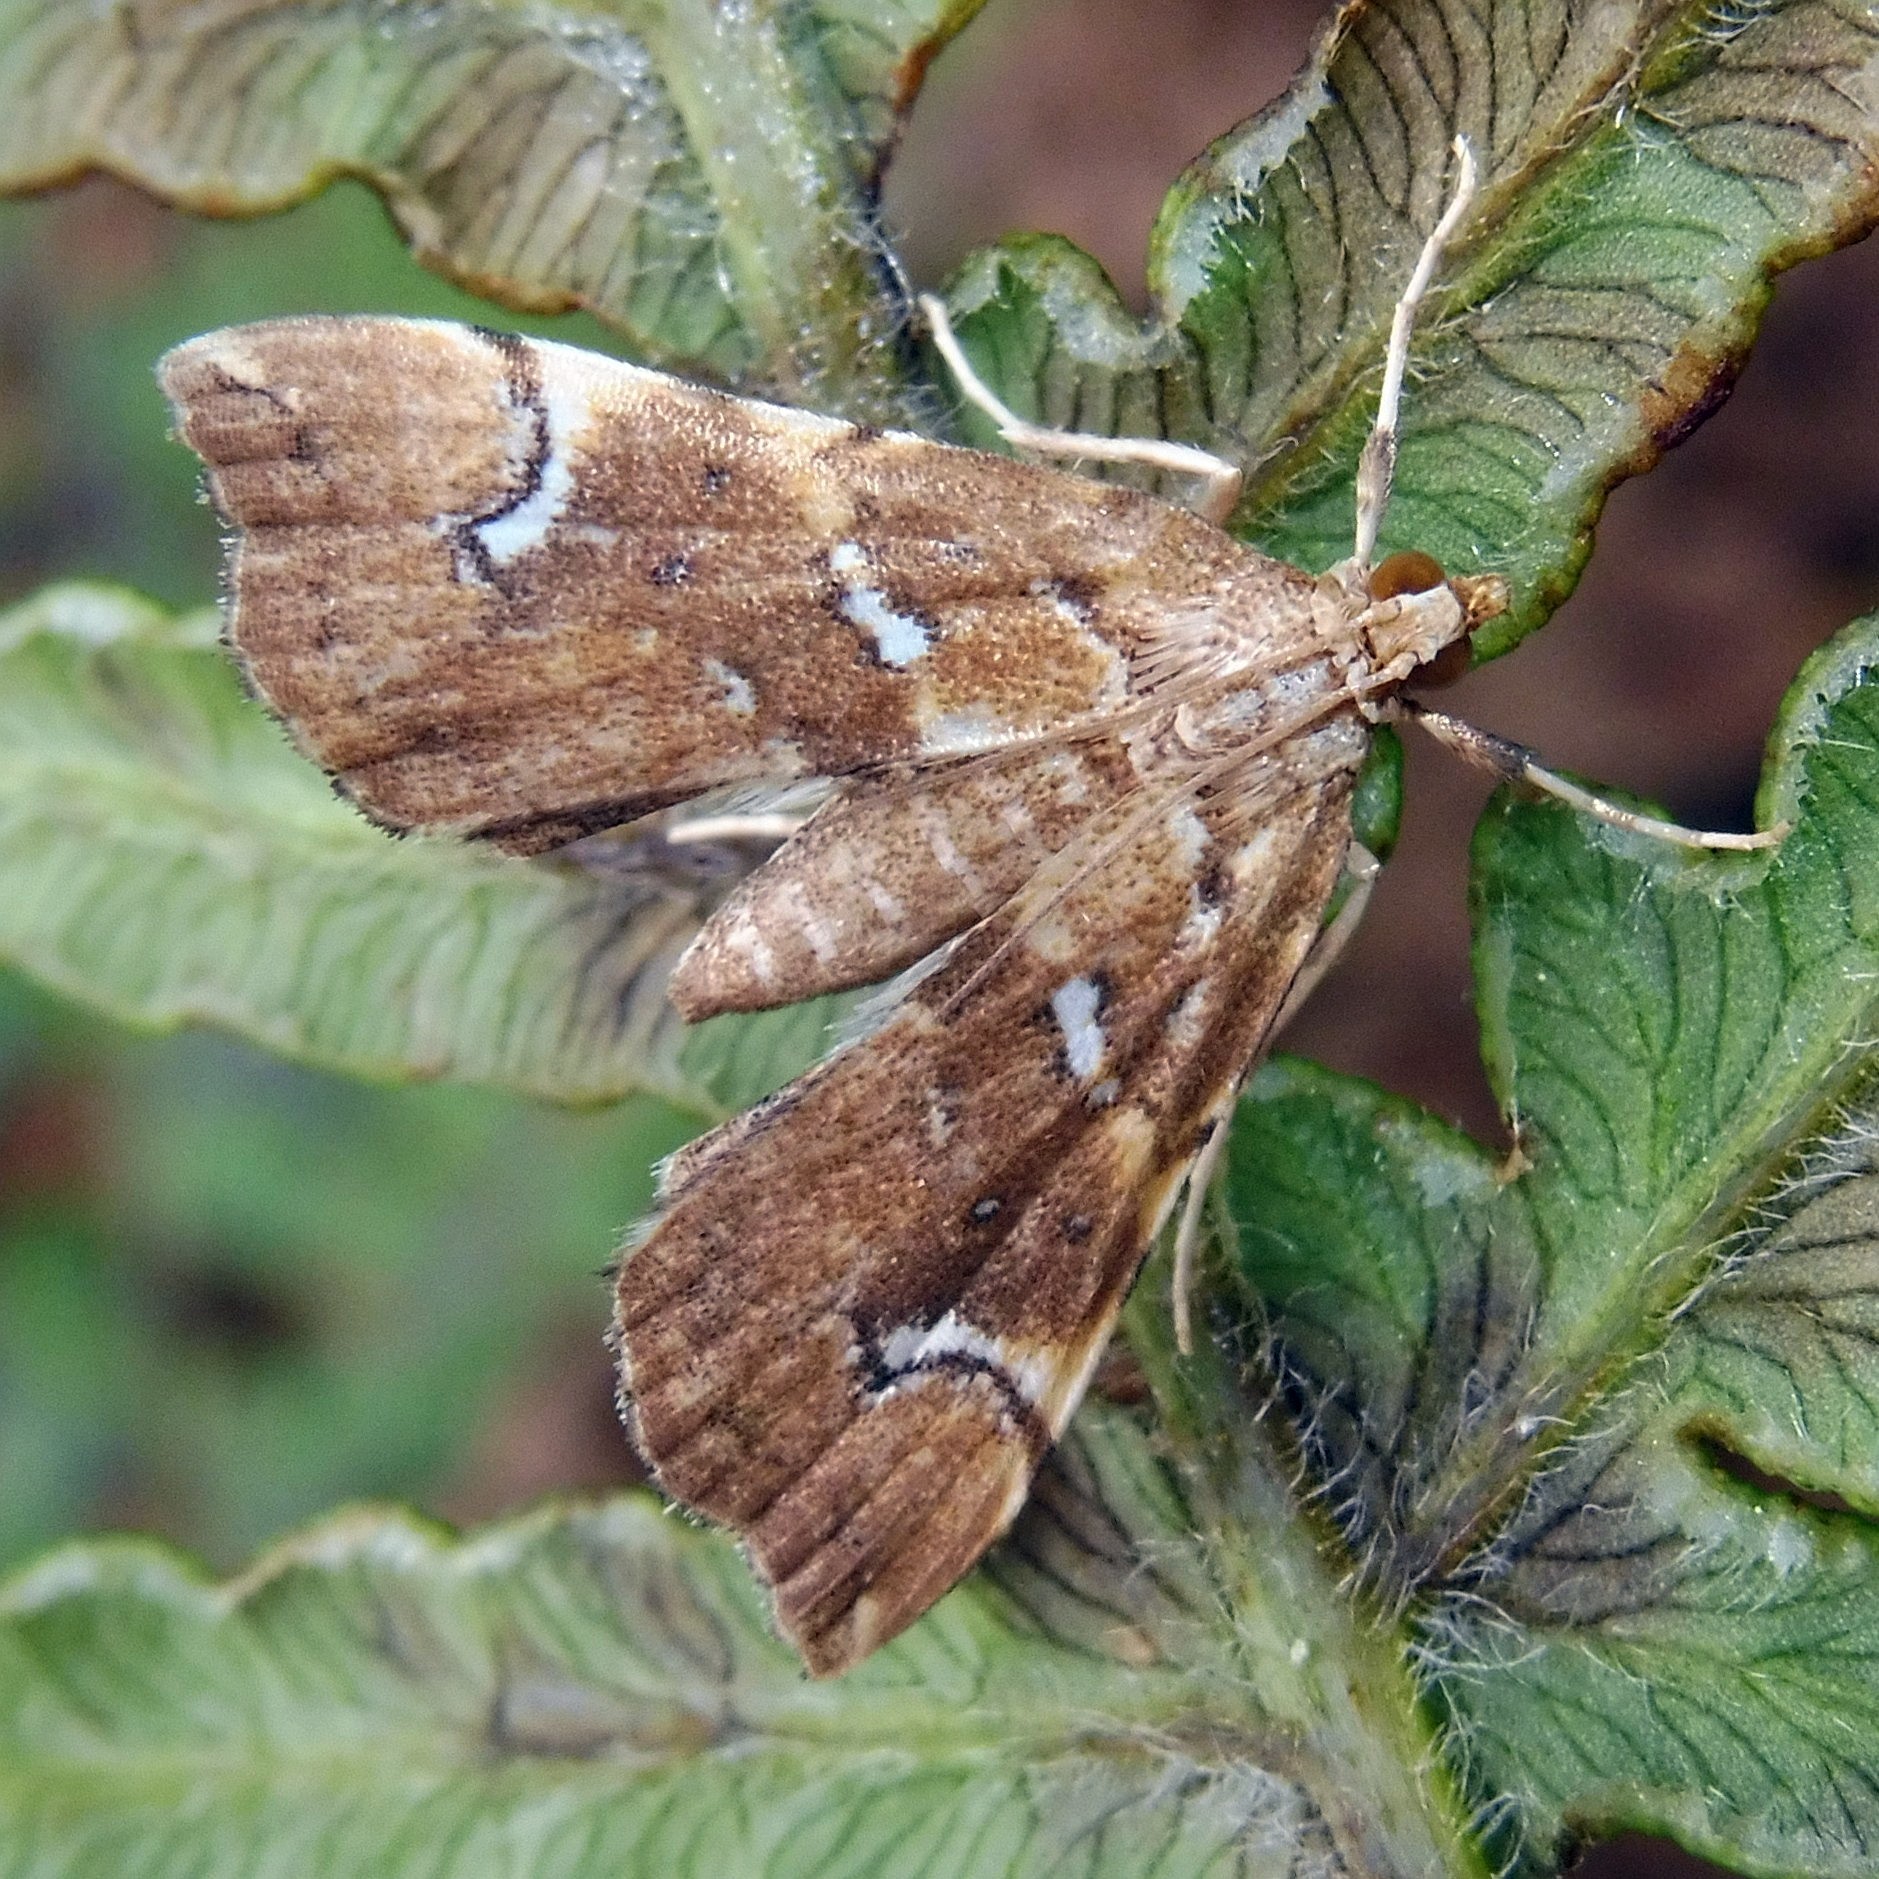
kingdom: Animalia
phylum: Arthropoda
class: Insecta
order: Lepidoptera
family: Pyralidae
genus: Musotima
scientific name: Musotima nitidalis
